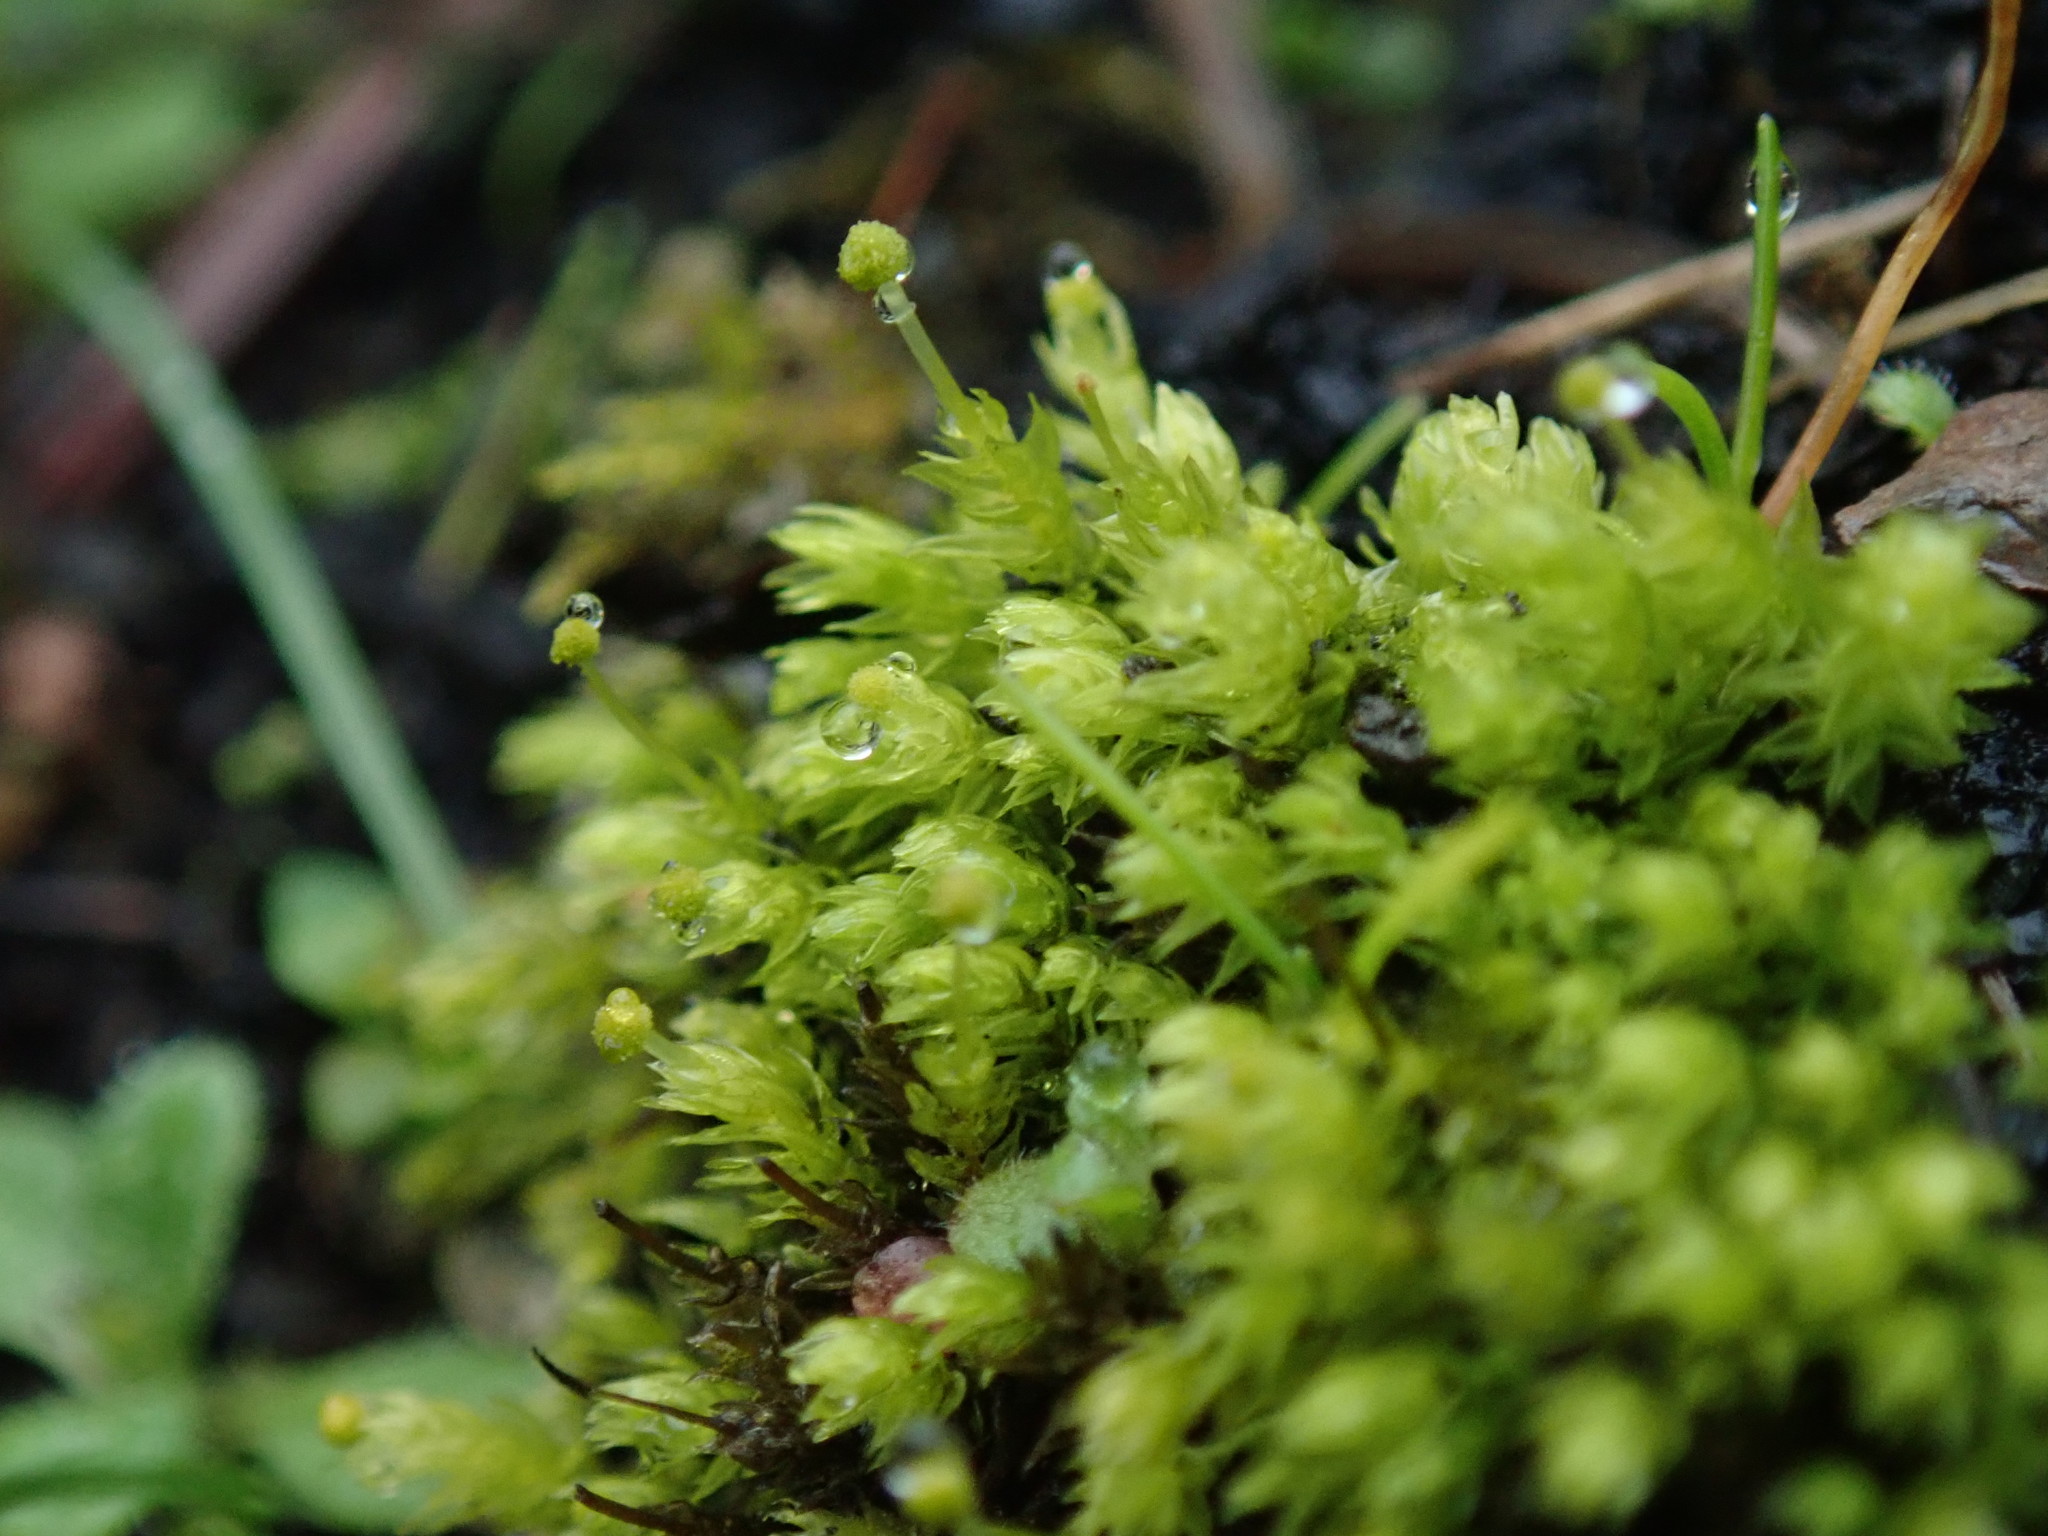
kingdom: Plantae
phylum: Bryophyta
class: Bryopsida
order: Aulacomniales
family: Aulacomniaceae
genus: Aulacomnium
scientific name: Aulacomnium androgynum
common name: Little groove moss
